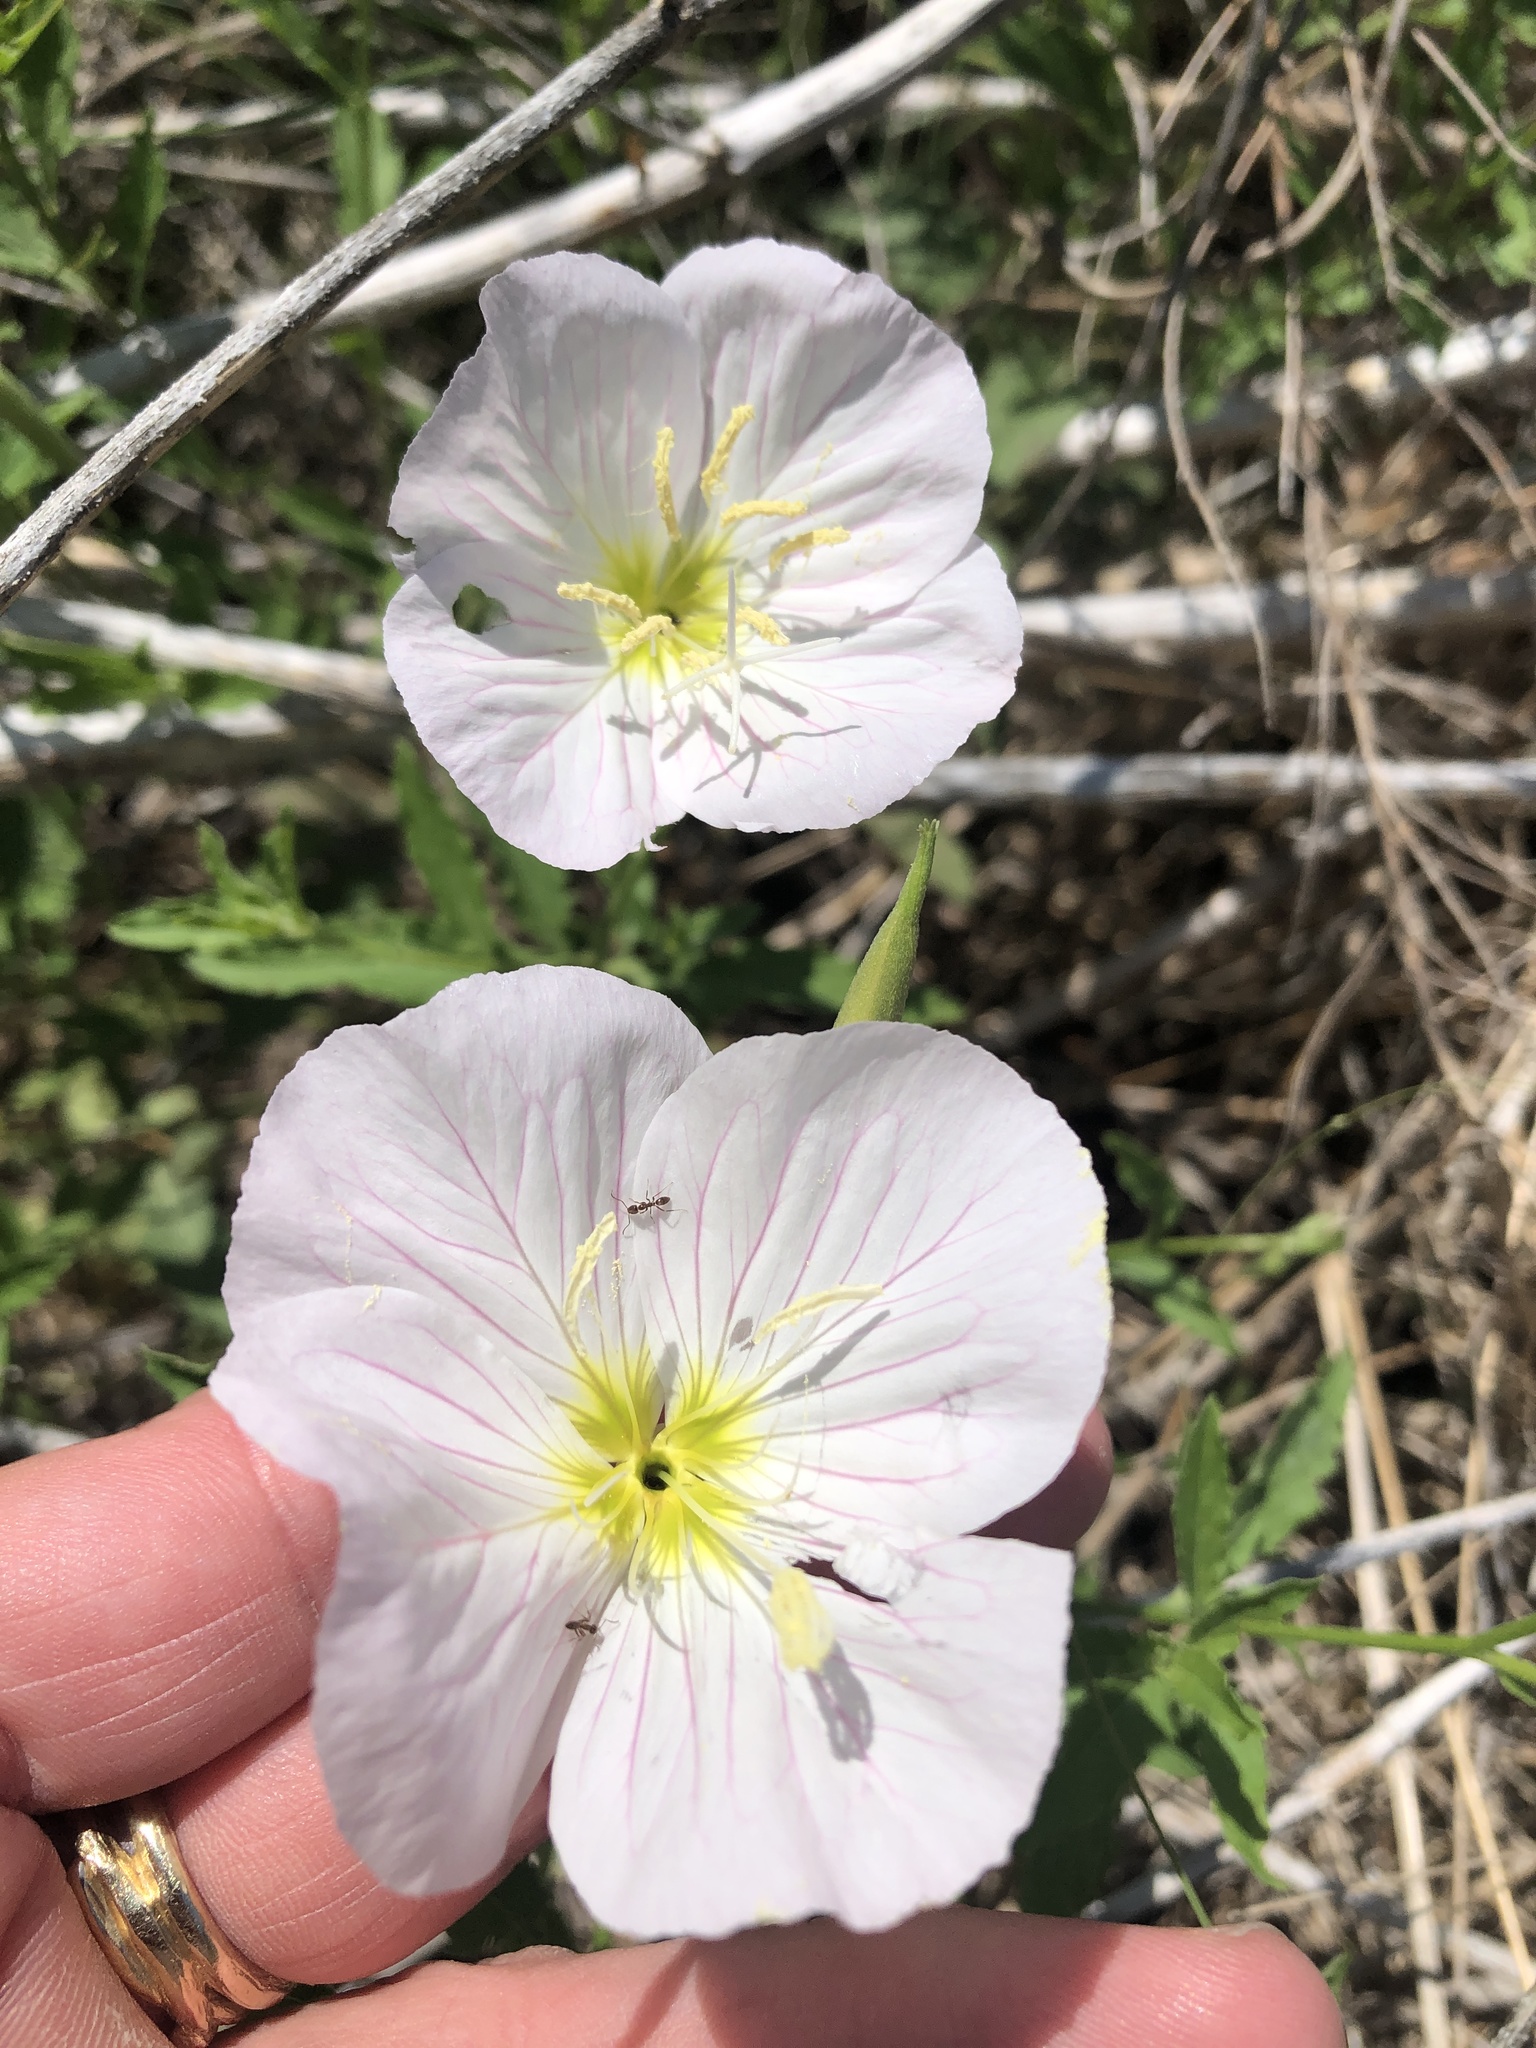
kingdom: Plantae
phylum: Tracheophyta
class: Magnoliopsida
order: Myrtales
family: Onagraceae
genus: Oenothera
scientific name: Oenothera speciosa
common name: White evening-primrose
